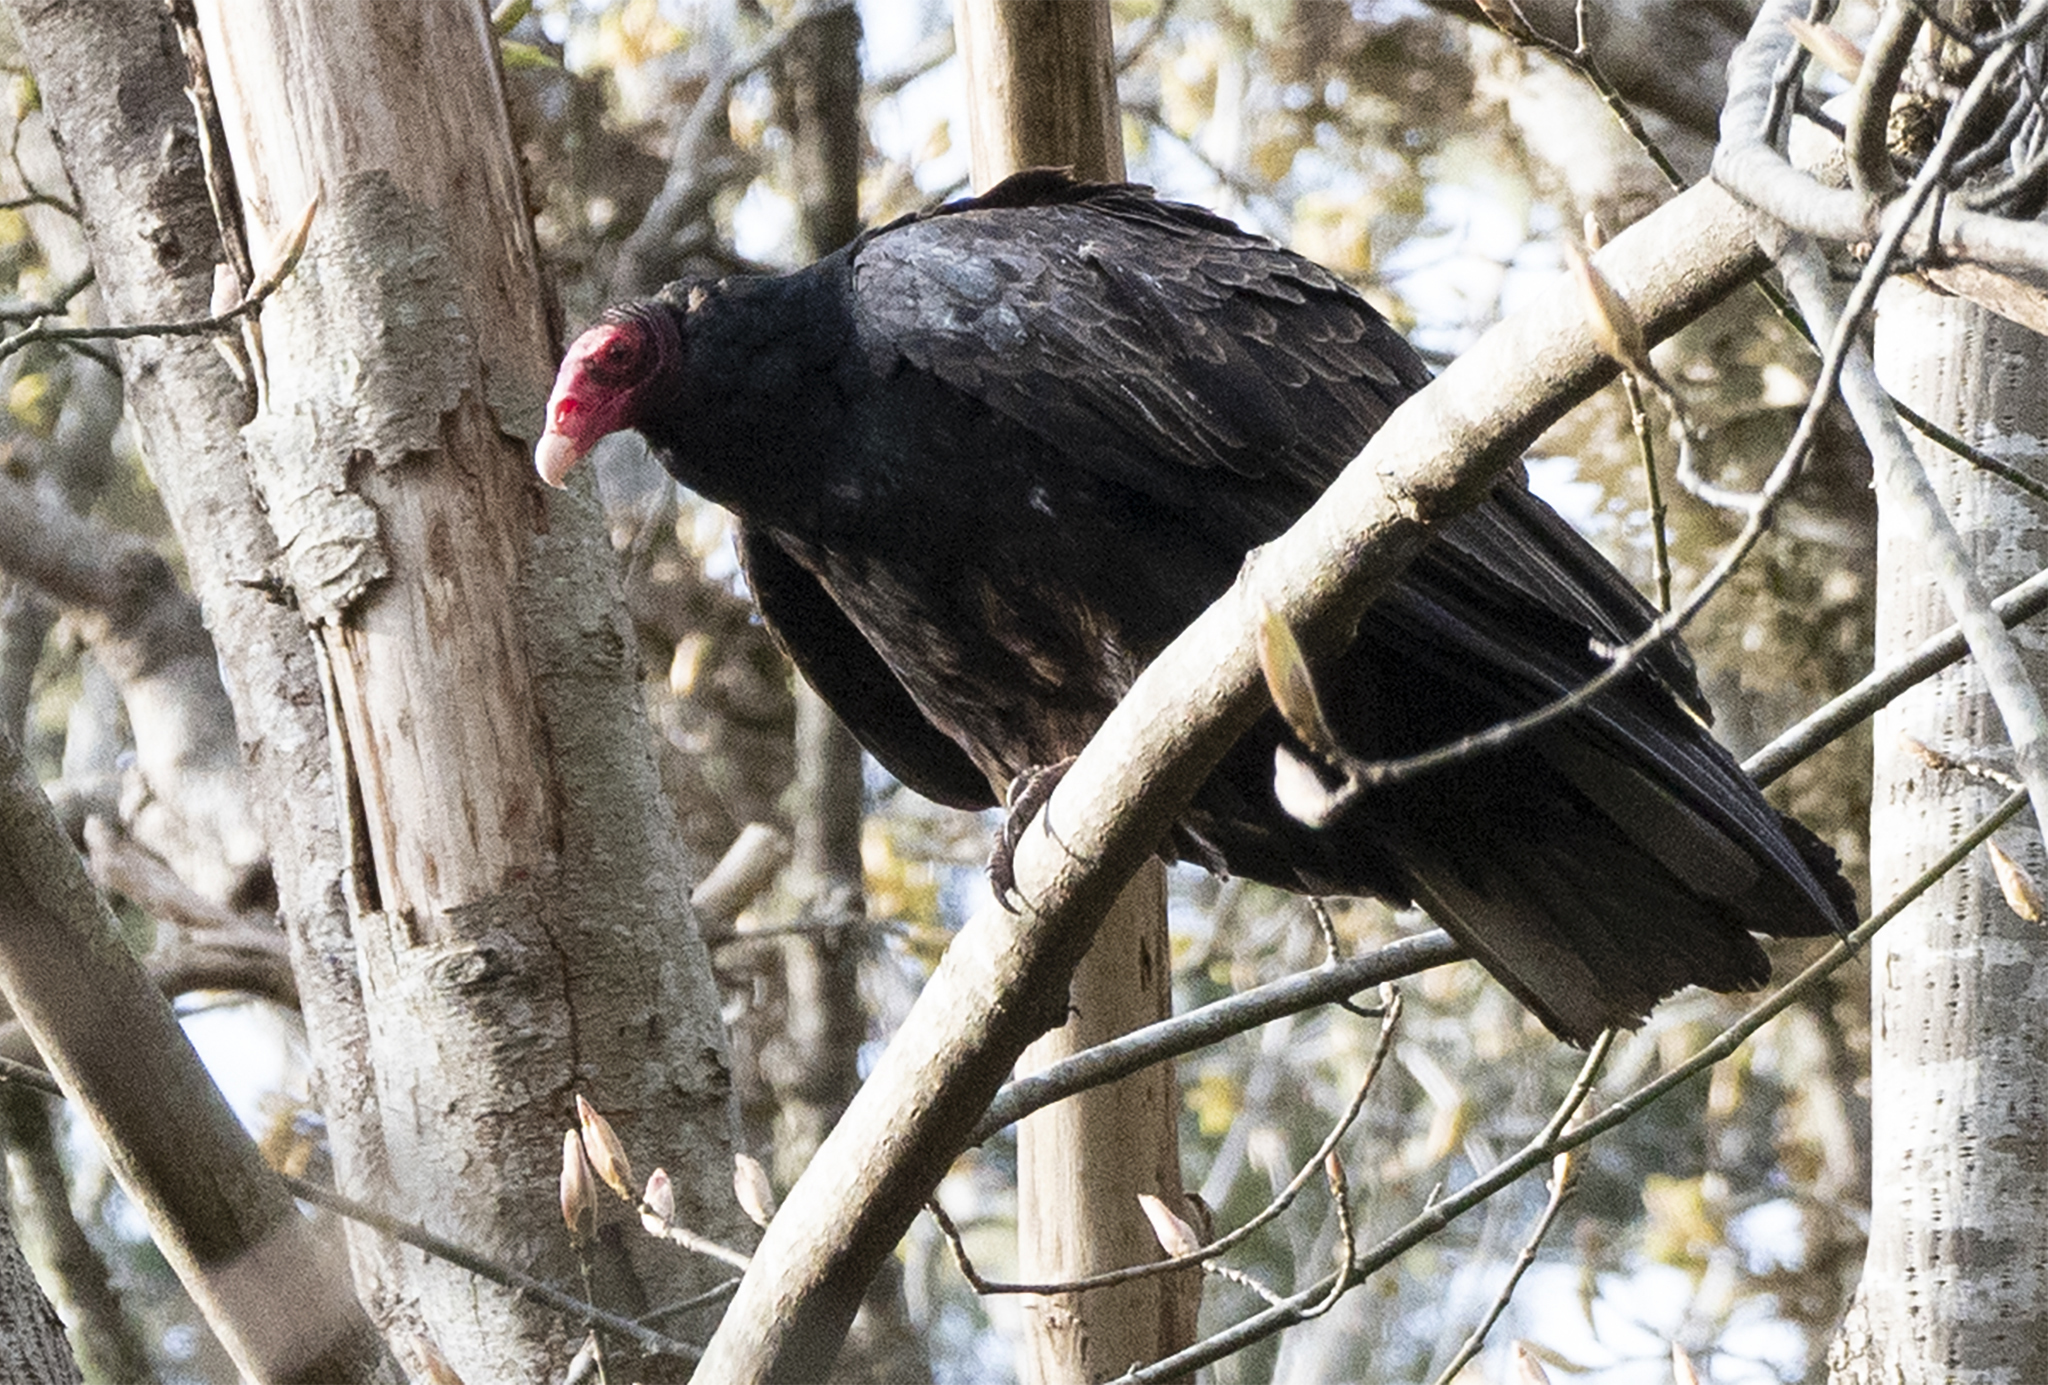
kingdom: Animalia
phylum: Chordata
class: Aves
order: Accipitriformes
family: Cathartidae
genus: Cathartes
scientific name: Cathartes aura
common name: Turkey vulture
